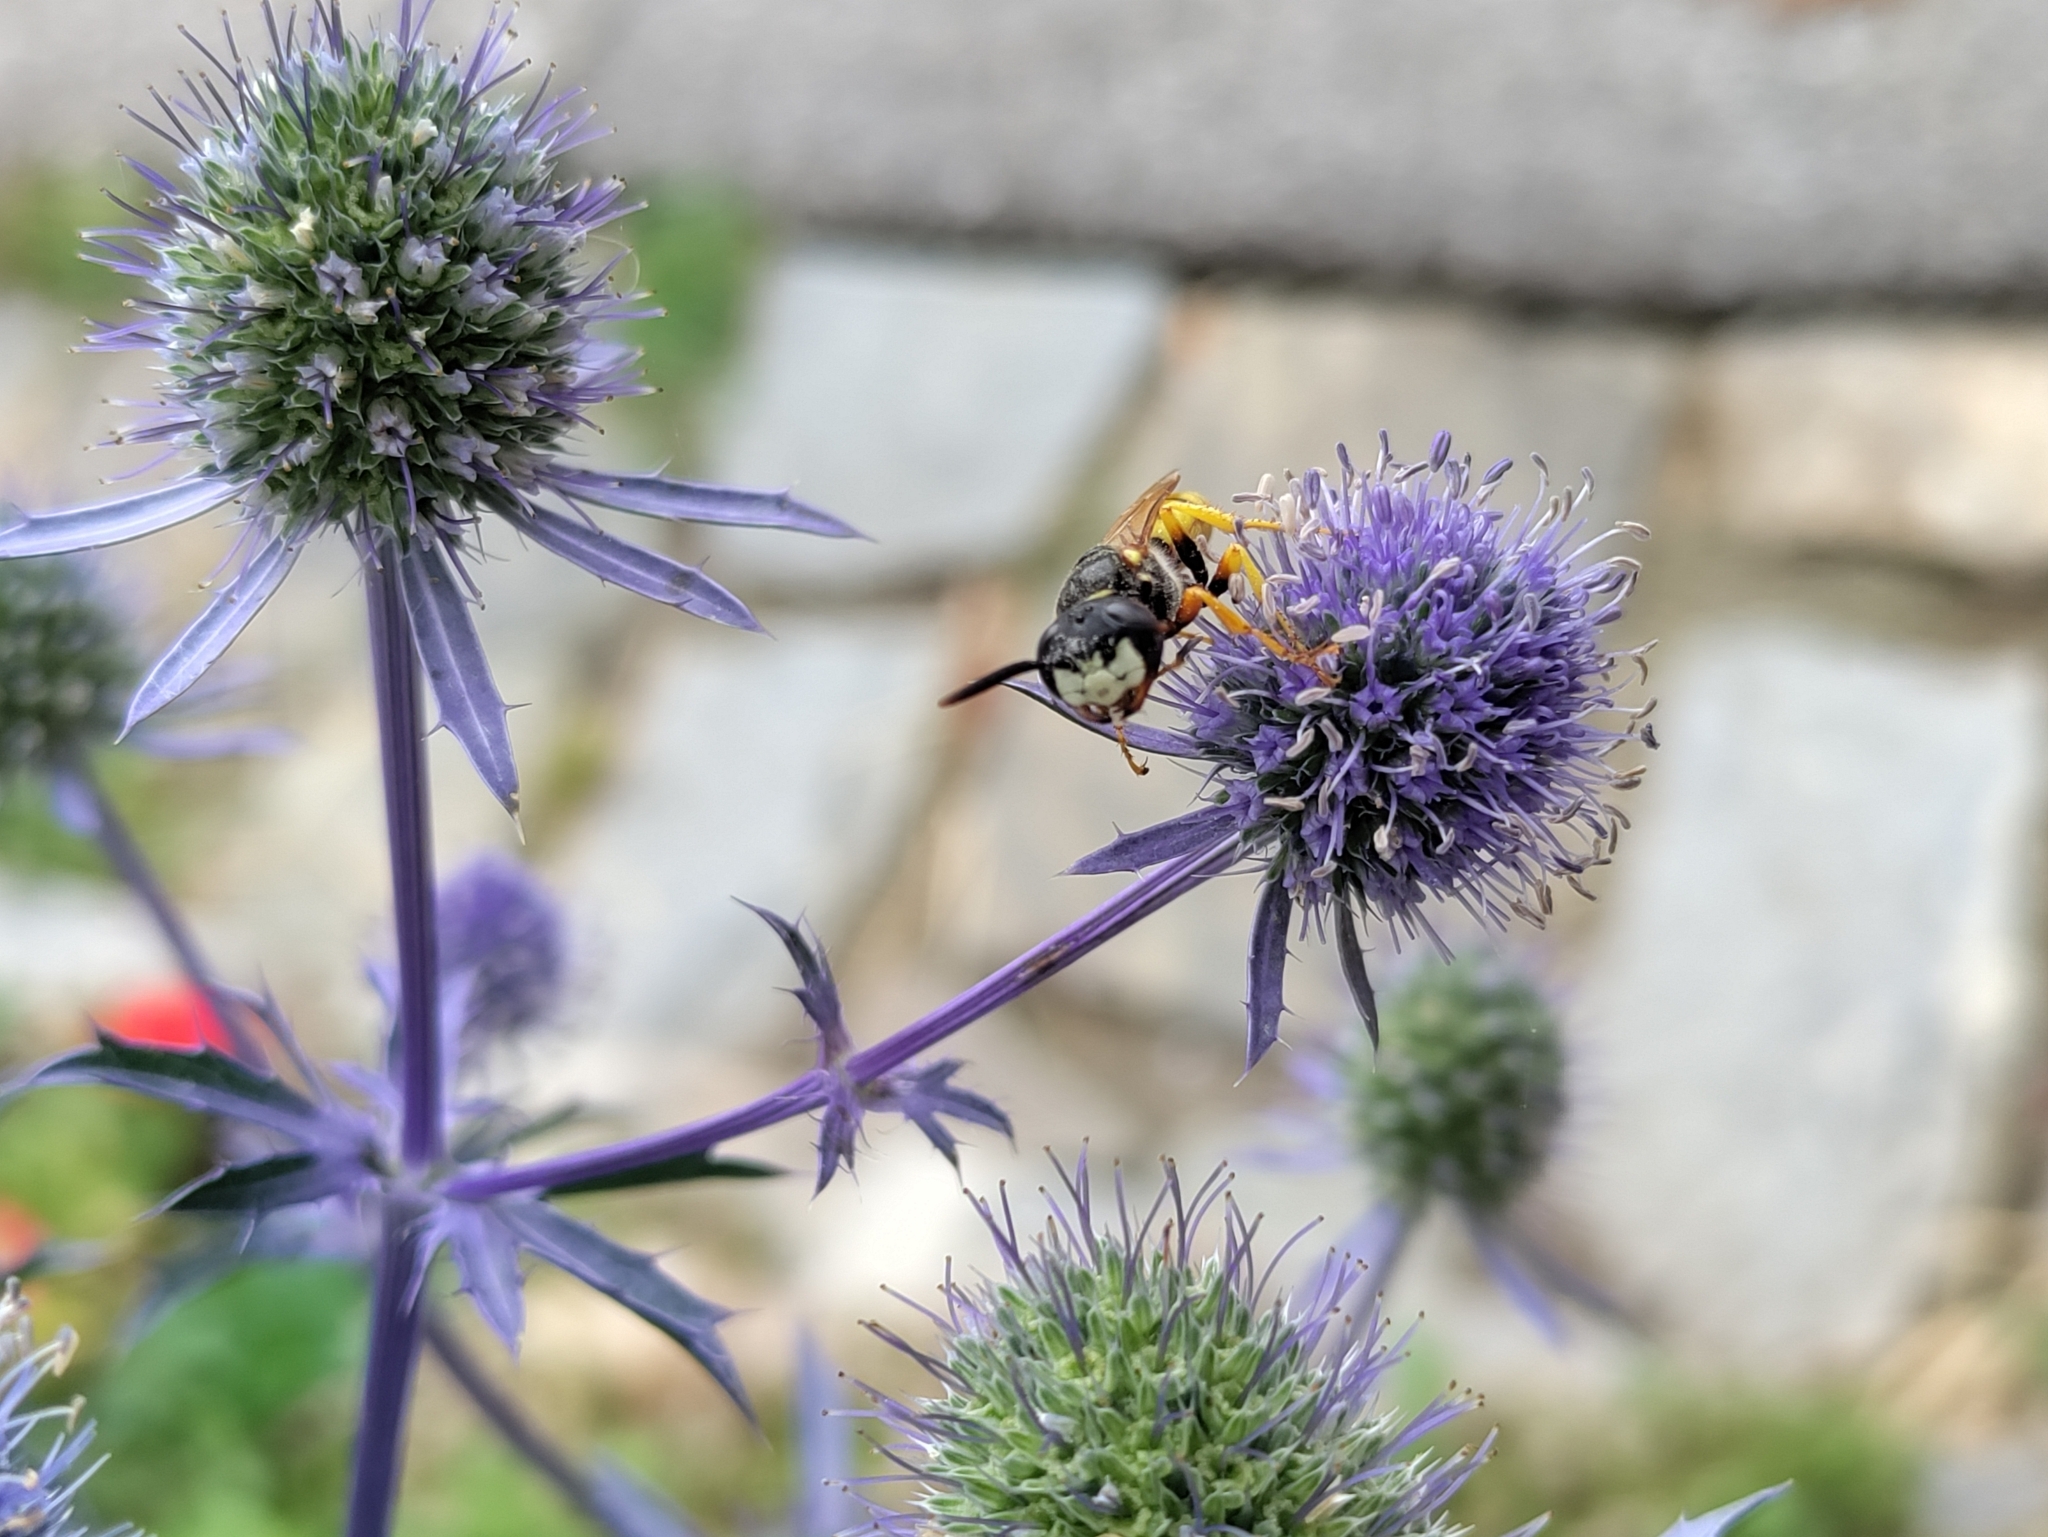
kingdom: Animalia
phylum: Arthropoda
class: Insecta
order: Hymenoptera
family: Crabronidae
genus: Philanthus
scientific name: Philanthus triangulum
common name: Bee wolf
